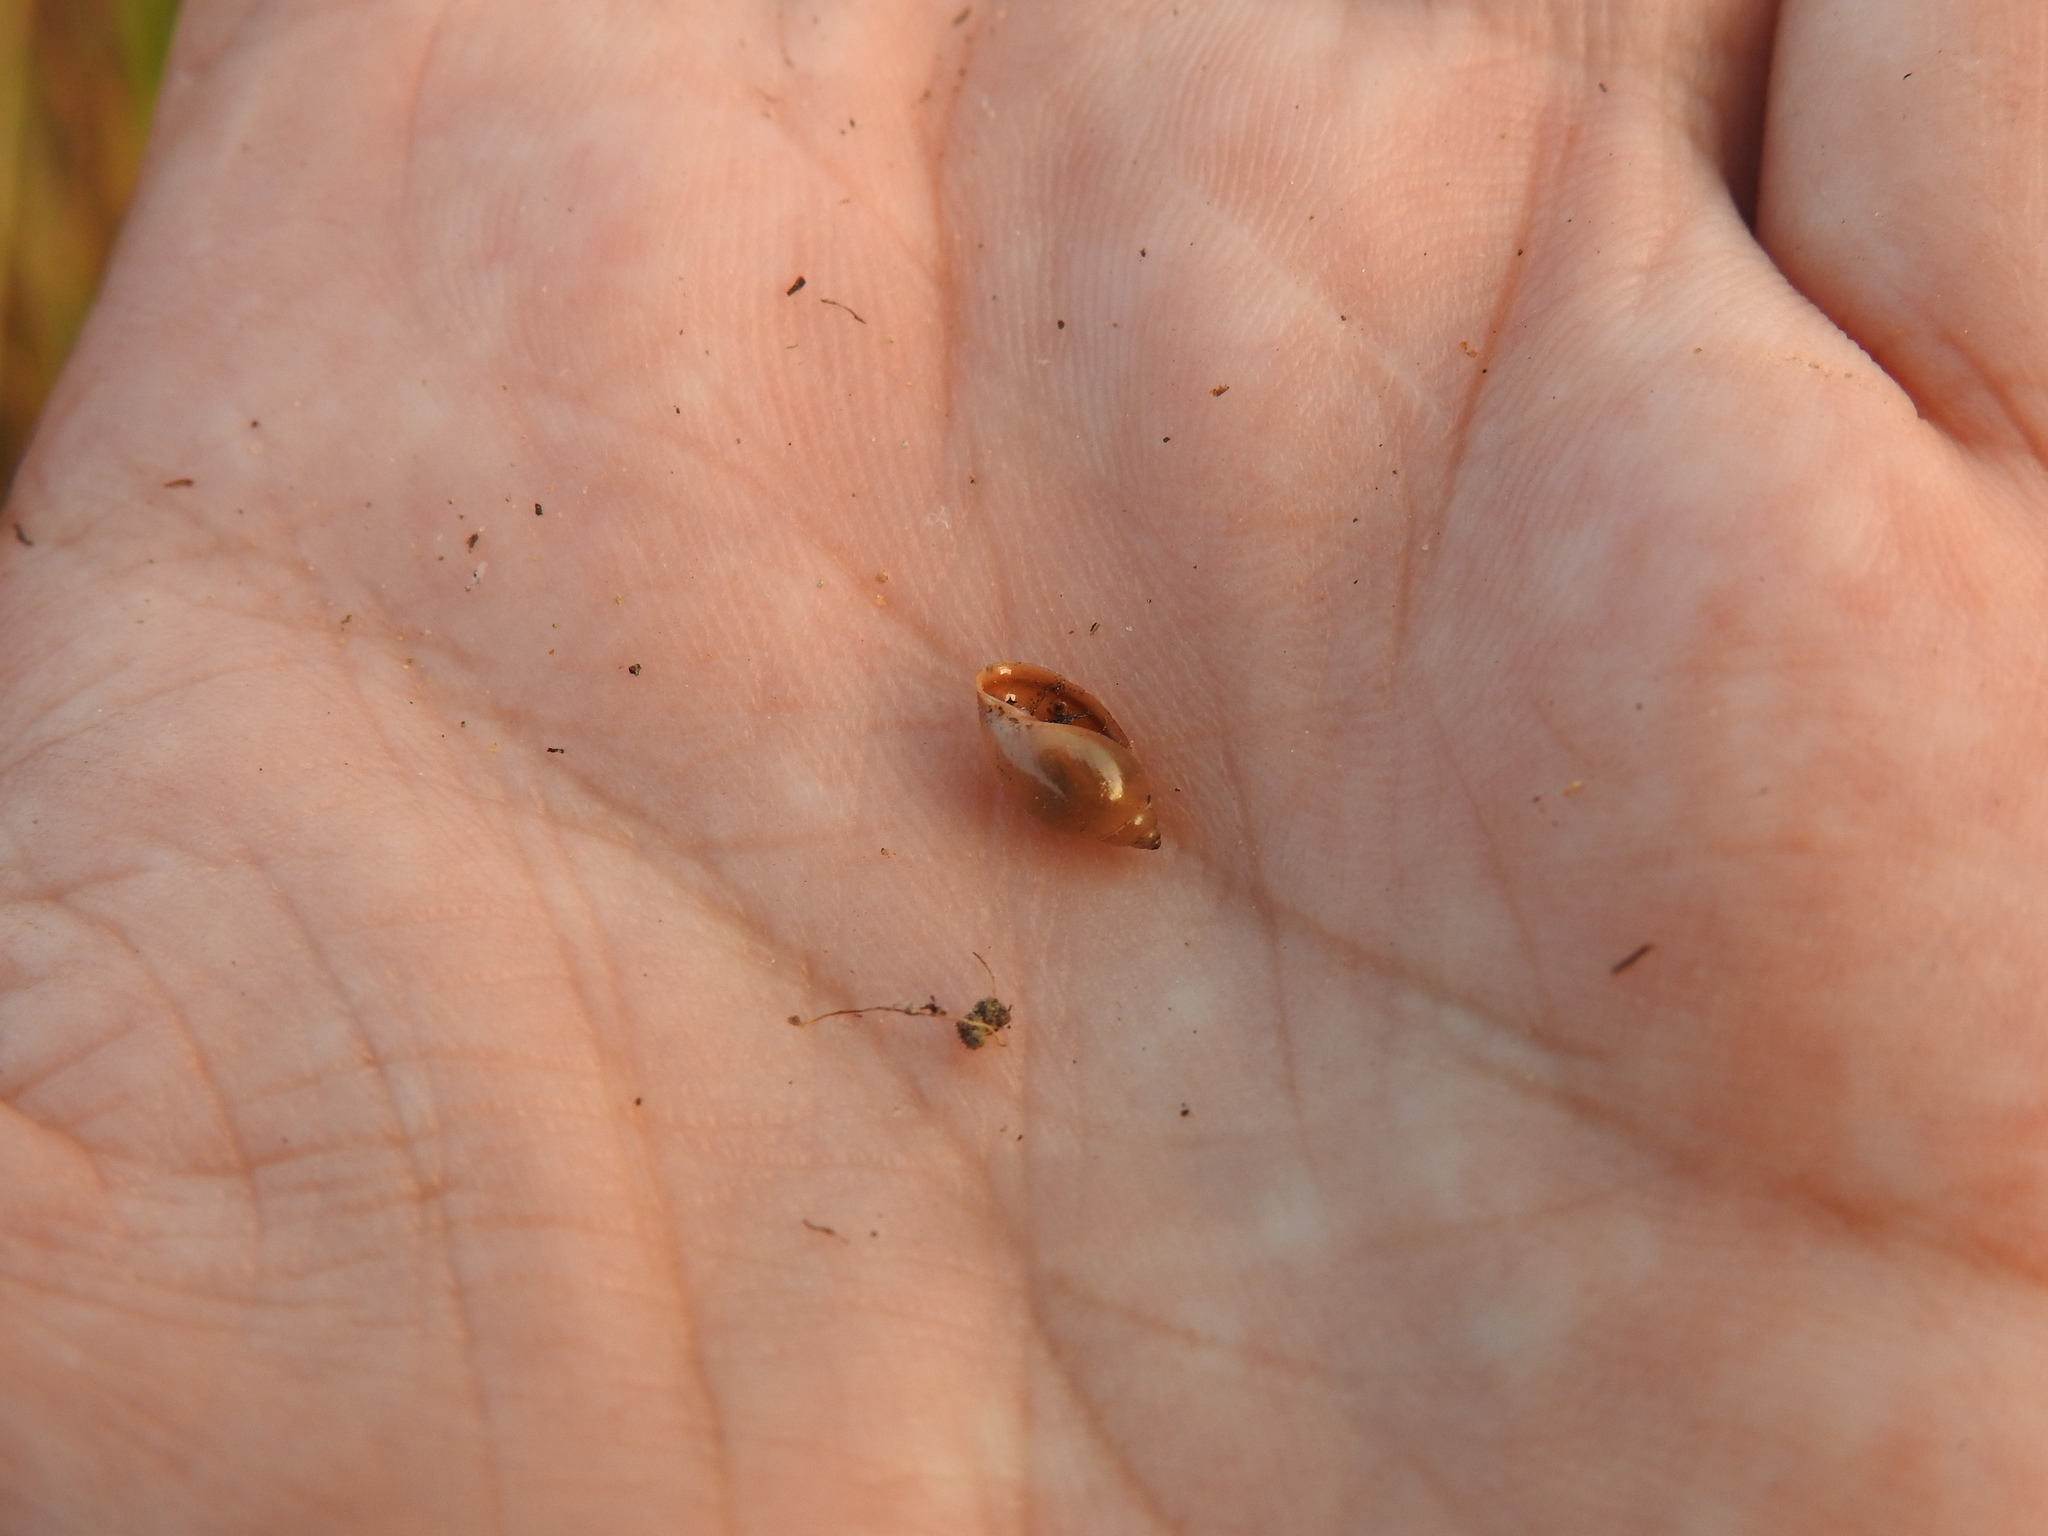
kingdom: Animalia
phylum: Mollusca
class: Gastropoda
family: Physidae
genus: Physella
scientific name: Physella acuta
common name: European physa
